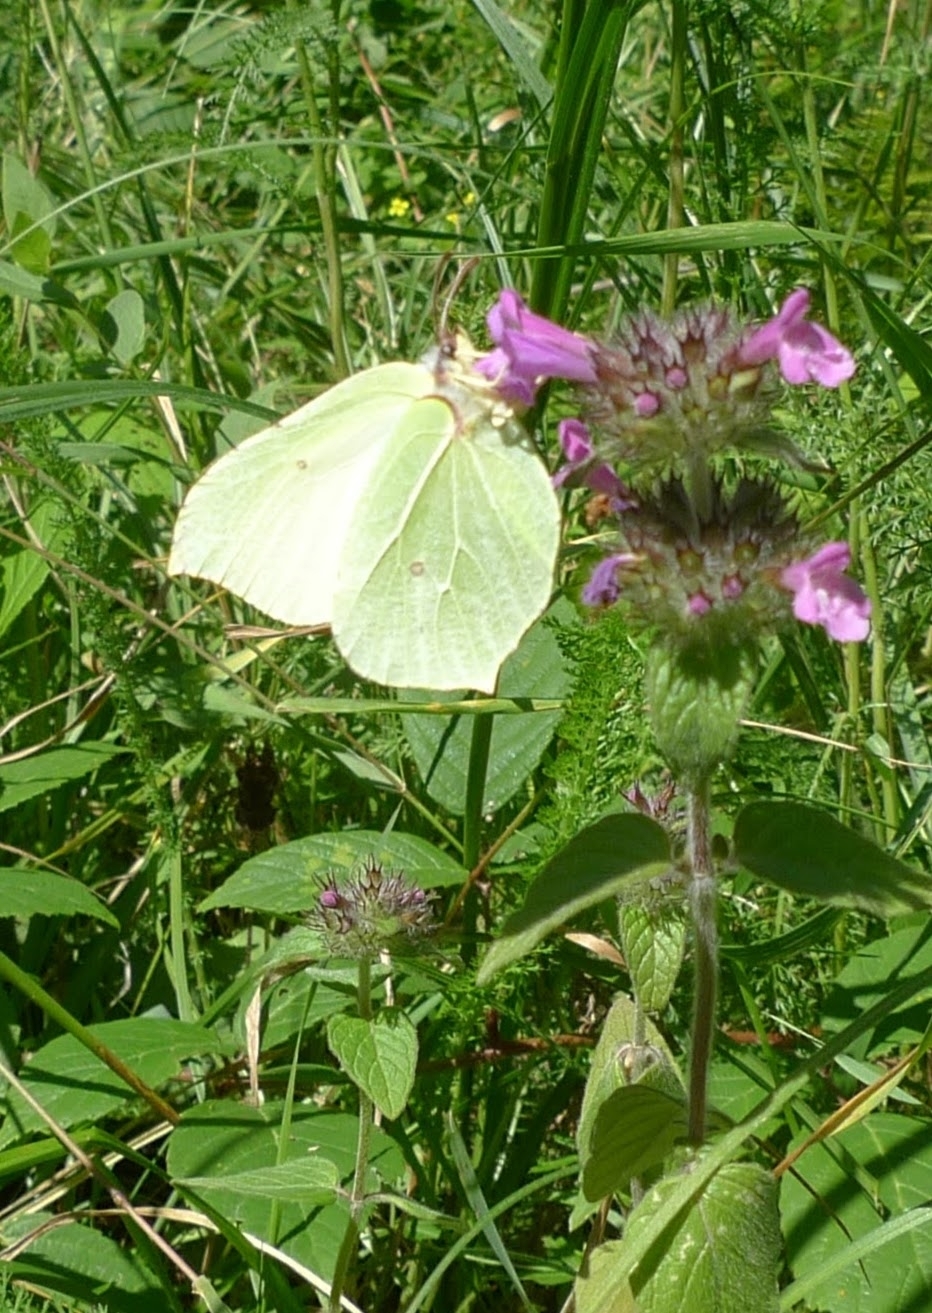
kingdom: Animalia
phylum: Arthropoda
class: Insecta
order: Lepidoptera
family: Pieridae
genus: Gonepteryx
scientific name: Gonepteryx rhamni
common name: Brimstone
